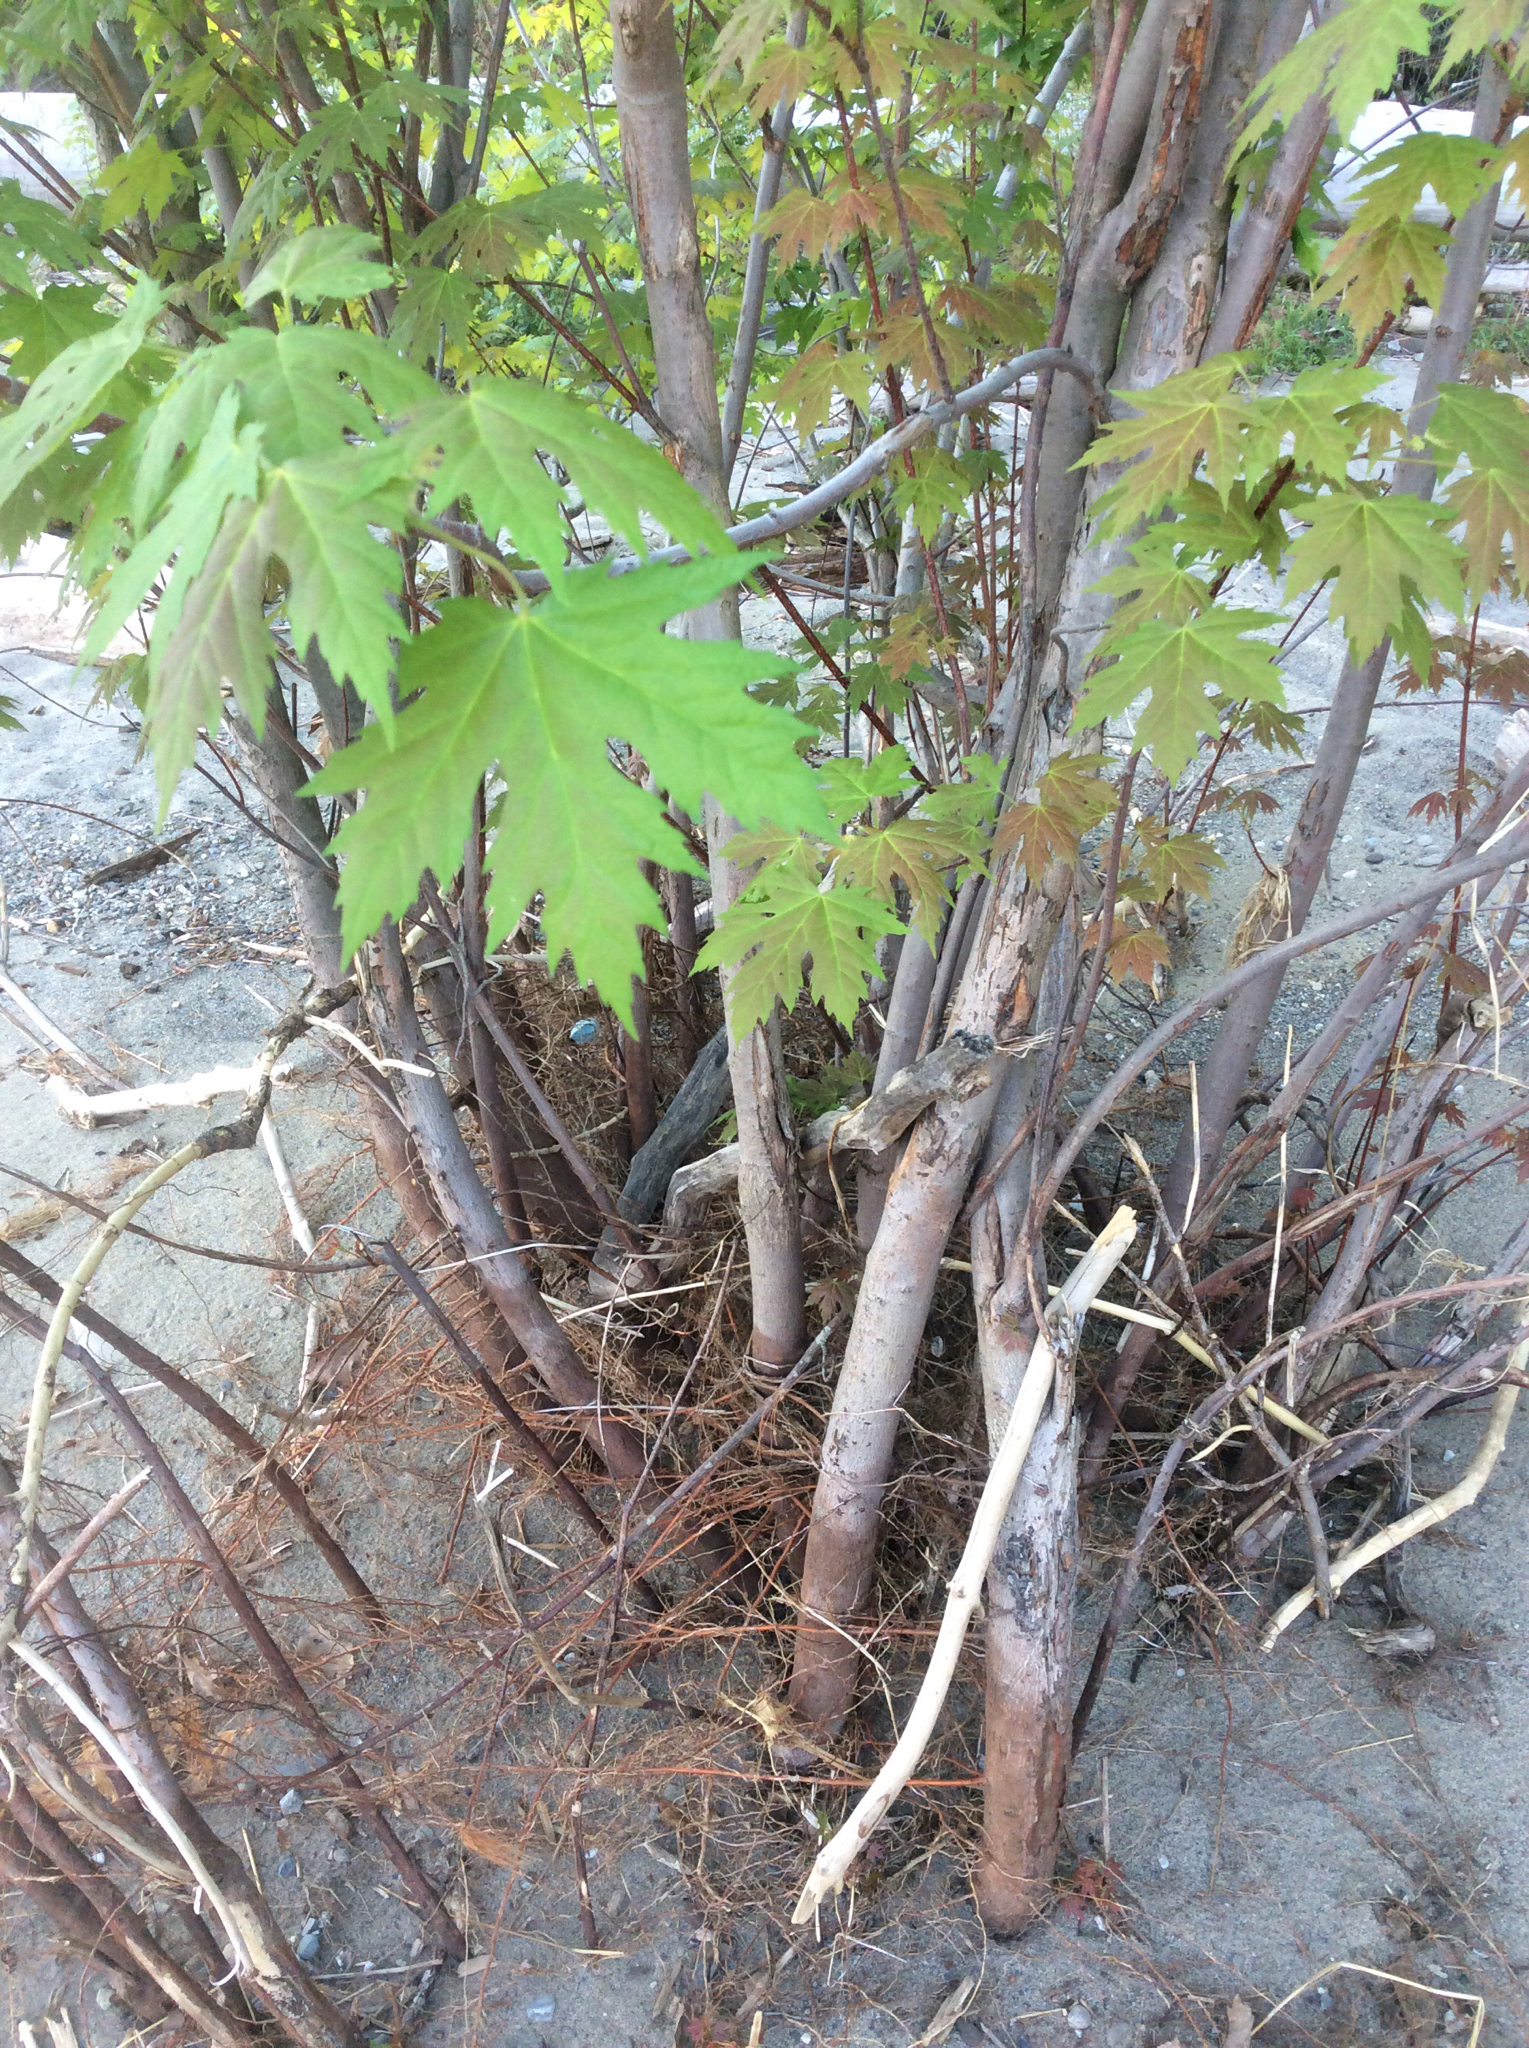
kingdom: Plantae
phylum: Tracheophyta
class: Magnoliopsida
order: Sapindales
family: Sapindaceae
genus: Acer
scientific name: Acer saccharinum
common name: Silver maple
